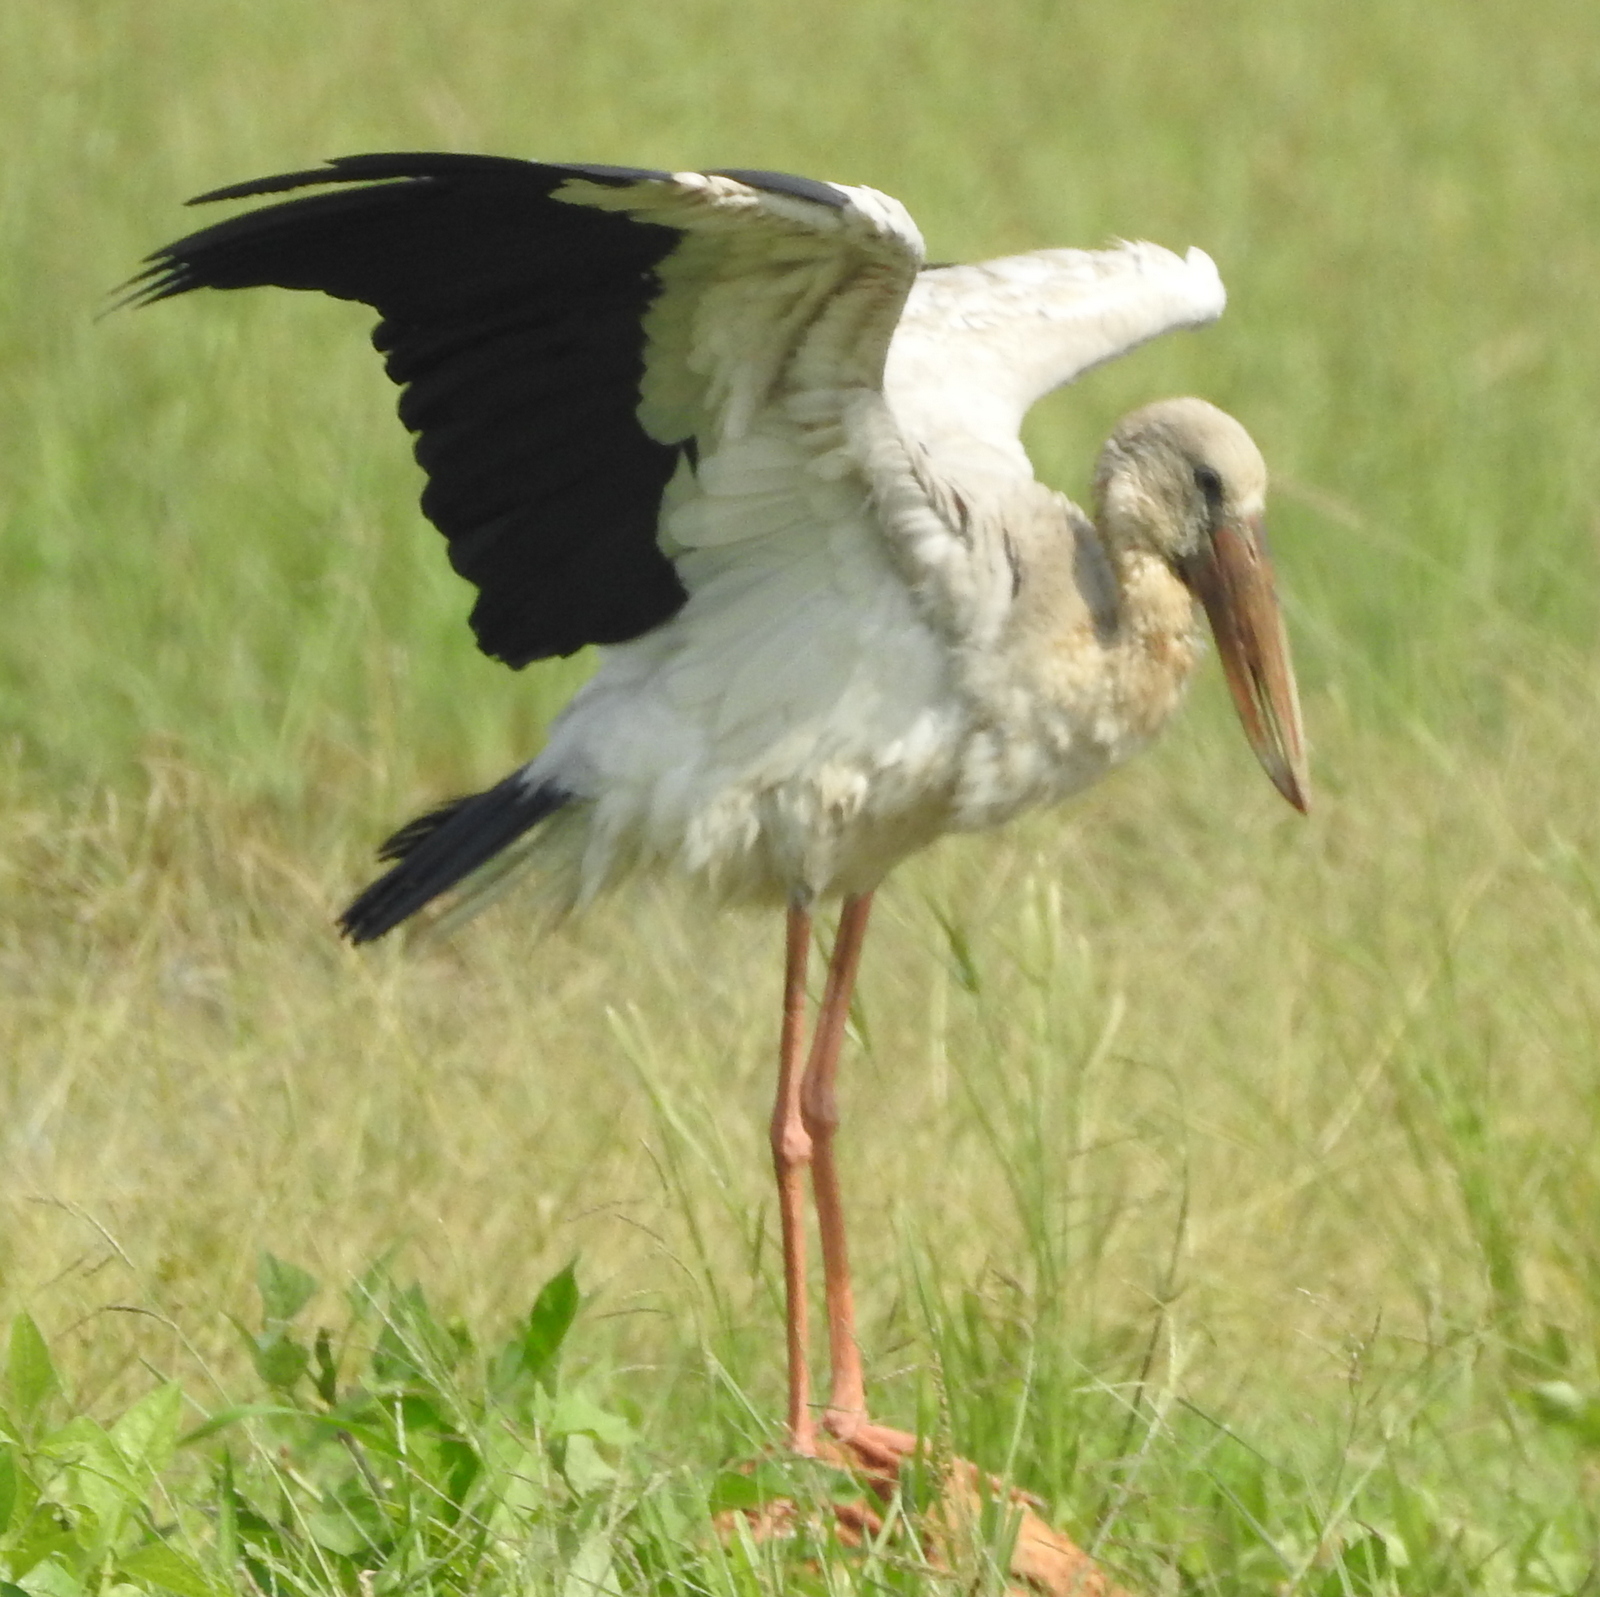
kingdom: Animalia
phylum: Chordata
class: Aves
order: Ciconiiformes
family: Ciconiidae
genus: Anastomus
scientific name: Anastomus oscitans
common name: Asian openbill
